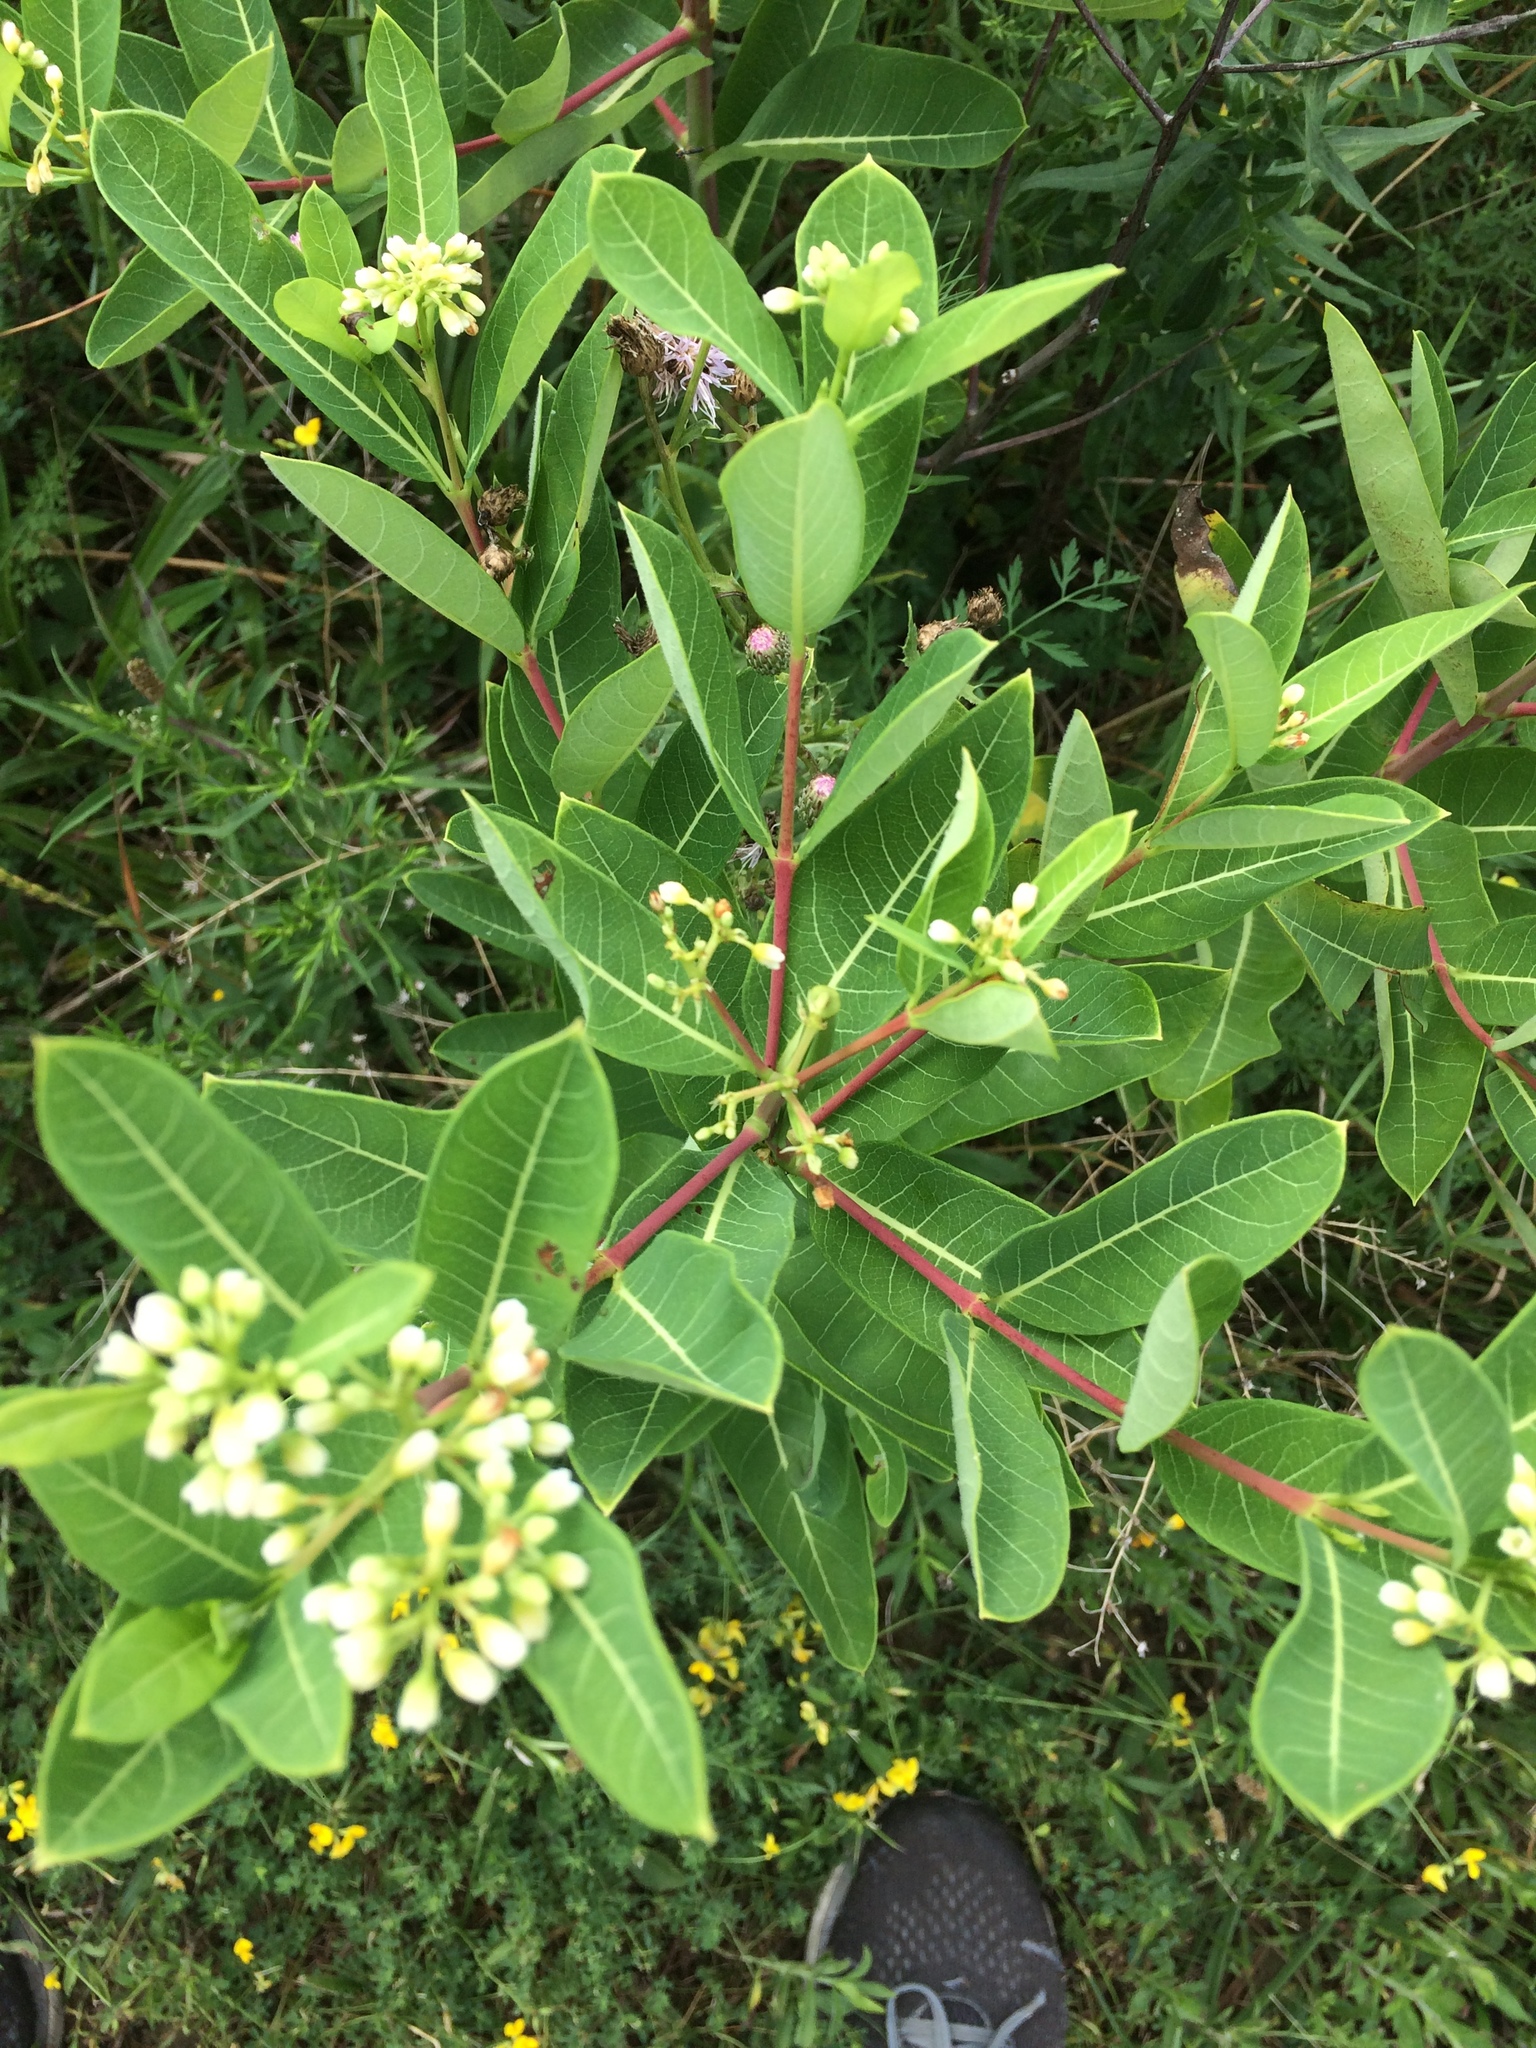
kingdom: Plantae
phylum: Tracheophyta
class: Magnoliopsida
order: Gentianales
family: Apocynaceae
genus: Apocynum
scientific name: Apocynum cannabinum
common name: Hemp dogbane
